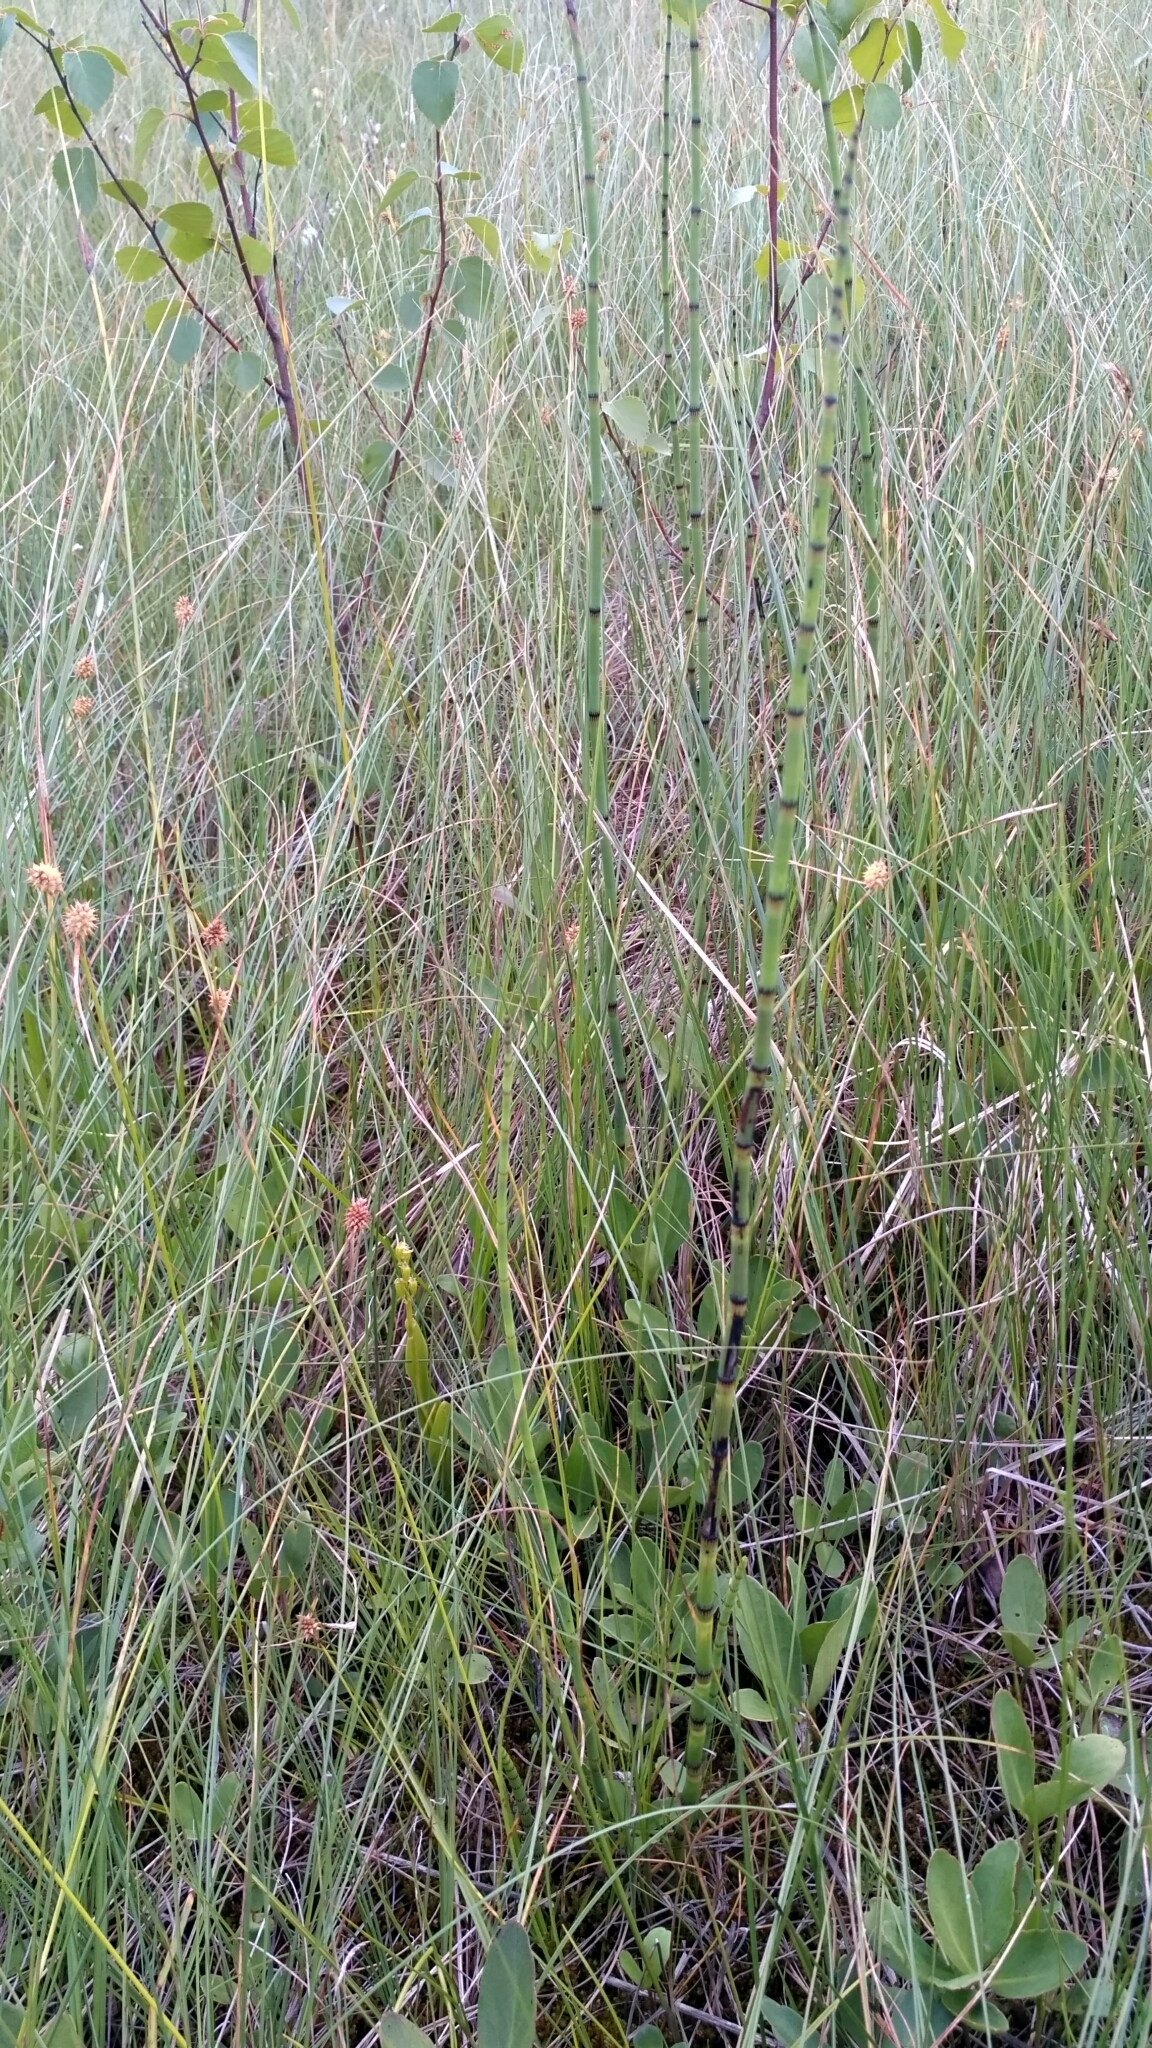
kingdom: Plantae
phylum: Tracheophyta
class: Polypodiopsida
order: Equisetales
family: Equisetaceae
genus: Equisetum
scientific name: Equisetum fluviatile
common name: Water horsetail
